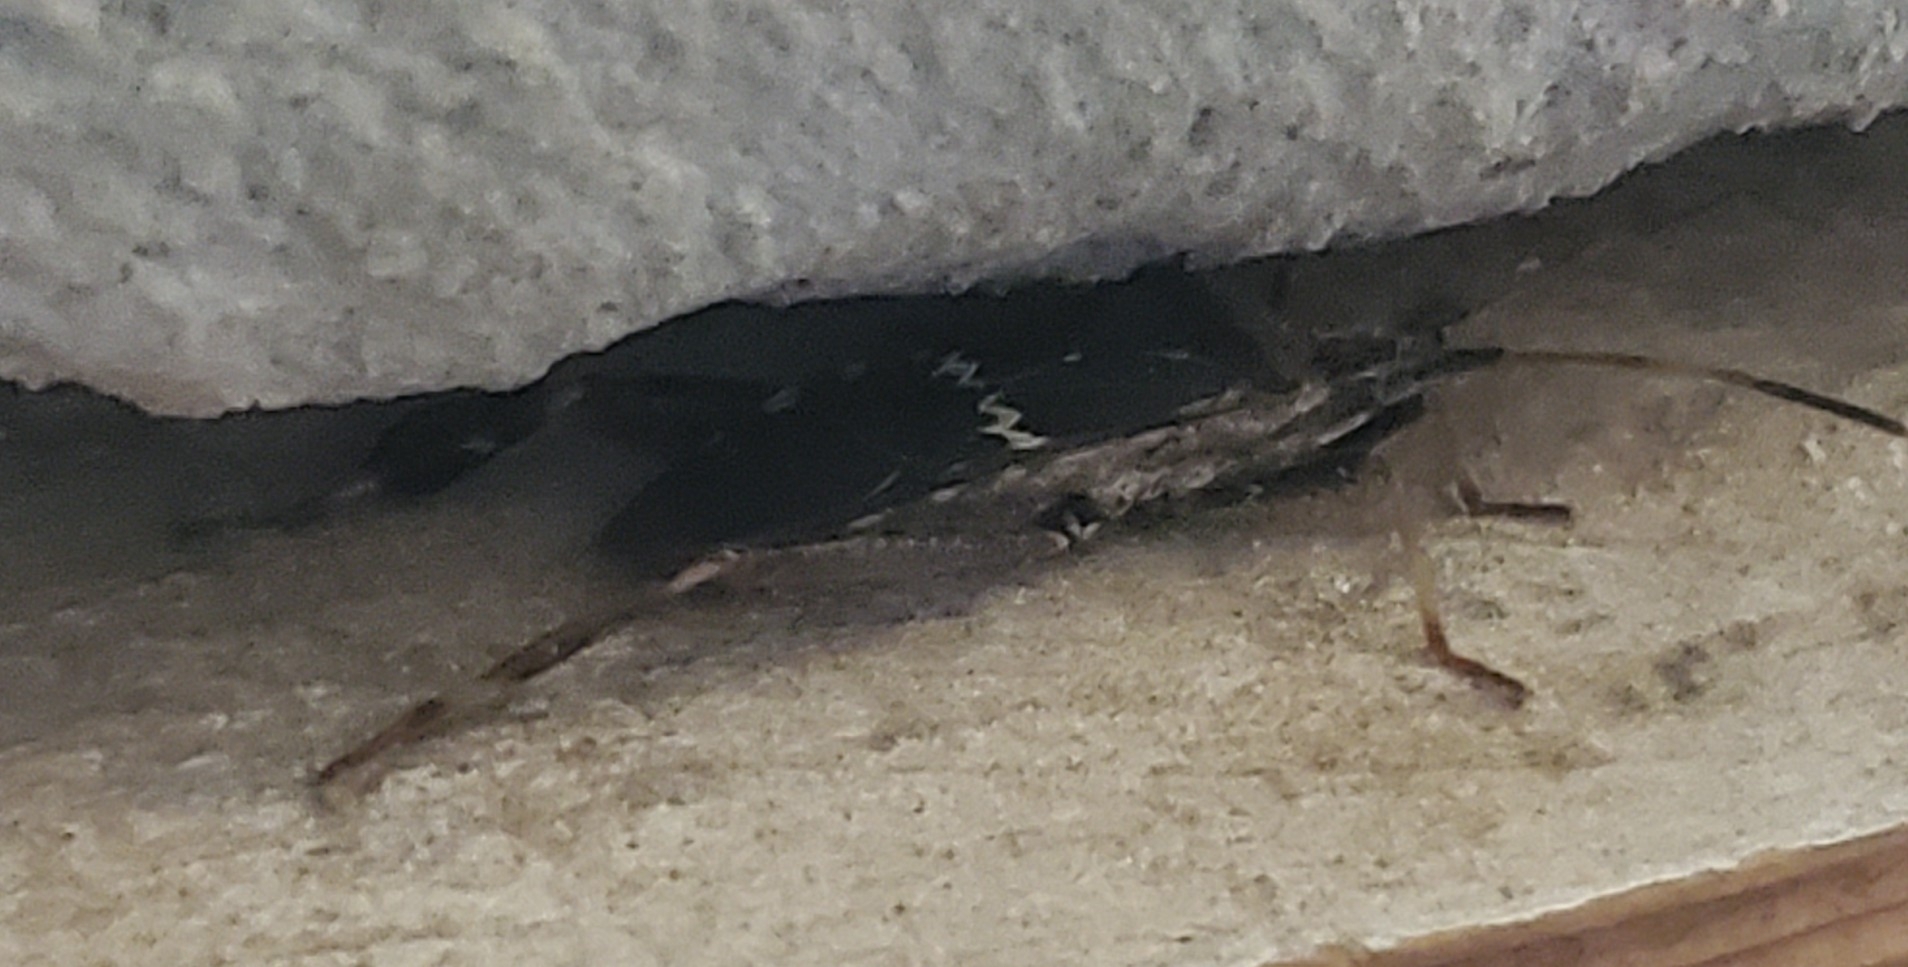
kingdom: Animalia
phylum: Arthropoda
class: Insecta
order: Hemiptera
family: Coreidae
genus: Leptoglossus
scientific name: Leptoglossus clypealis
